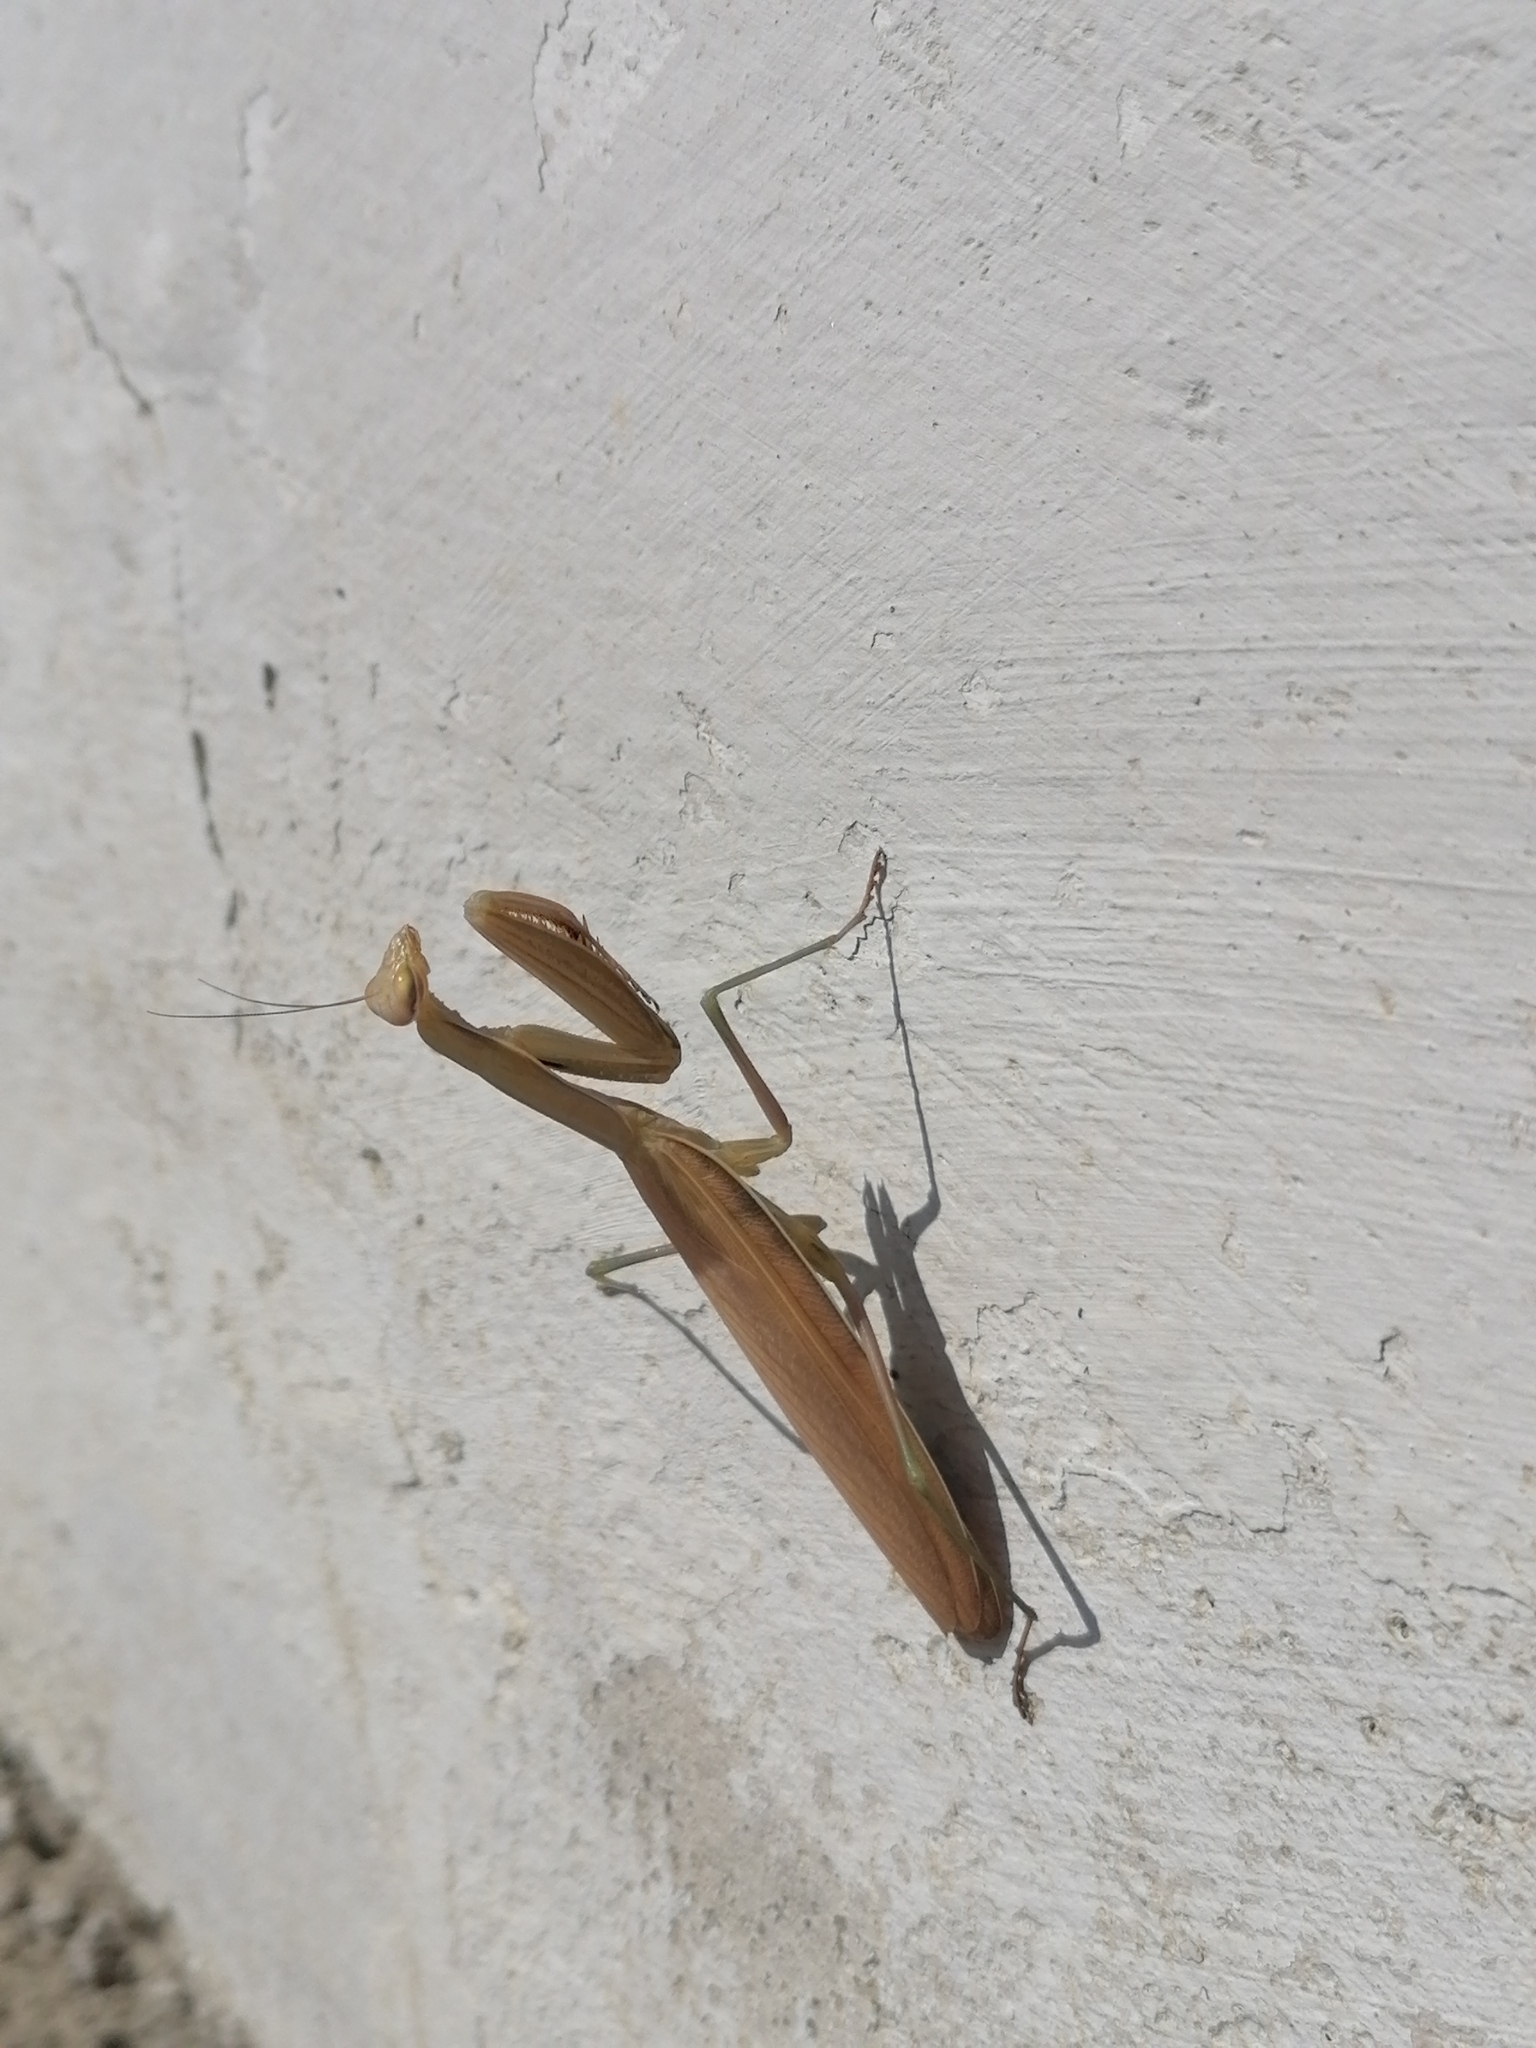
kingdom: Animalia
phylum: Arthropoda
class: Insecta
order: Mantodea
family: Mantidae
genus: Mantis
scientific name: Mantis religiosa
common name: Praying mantis
